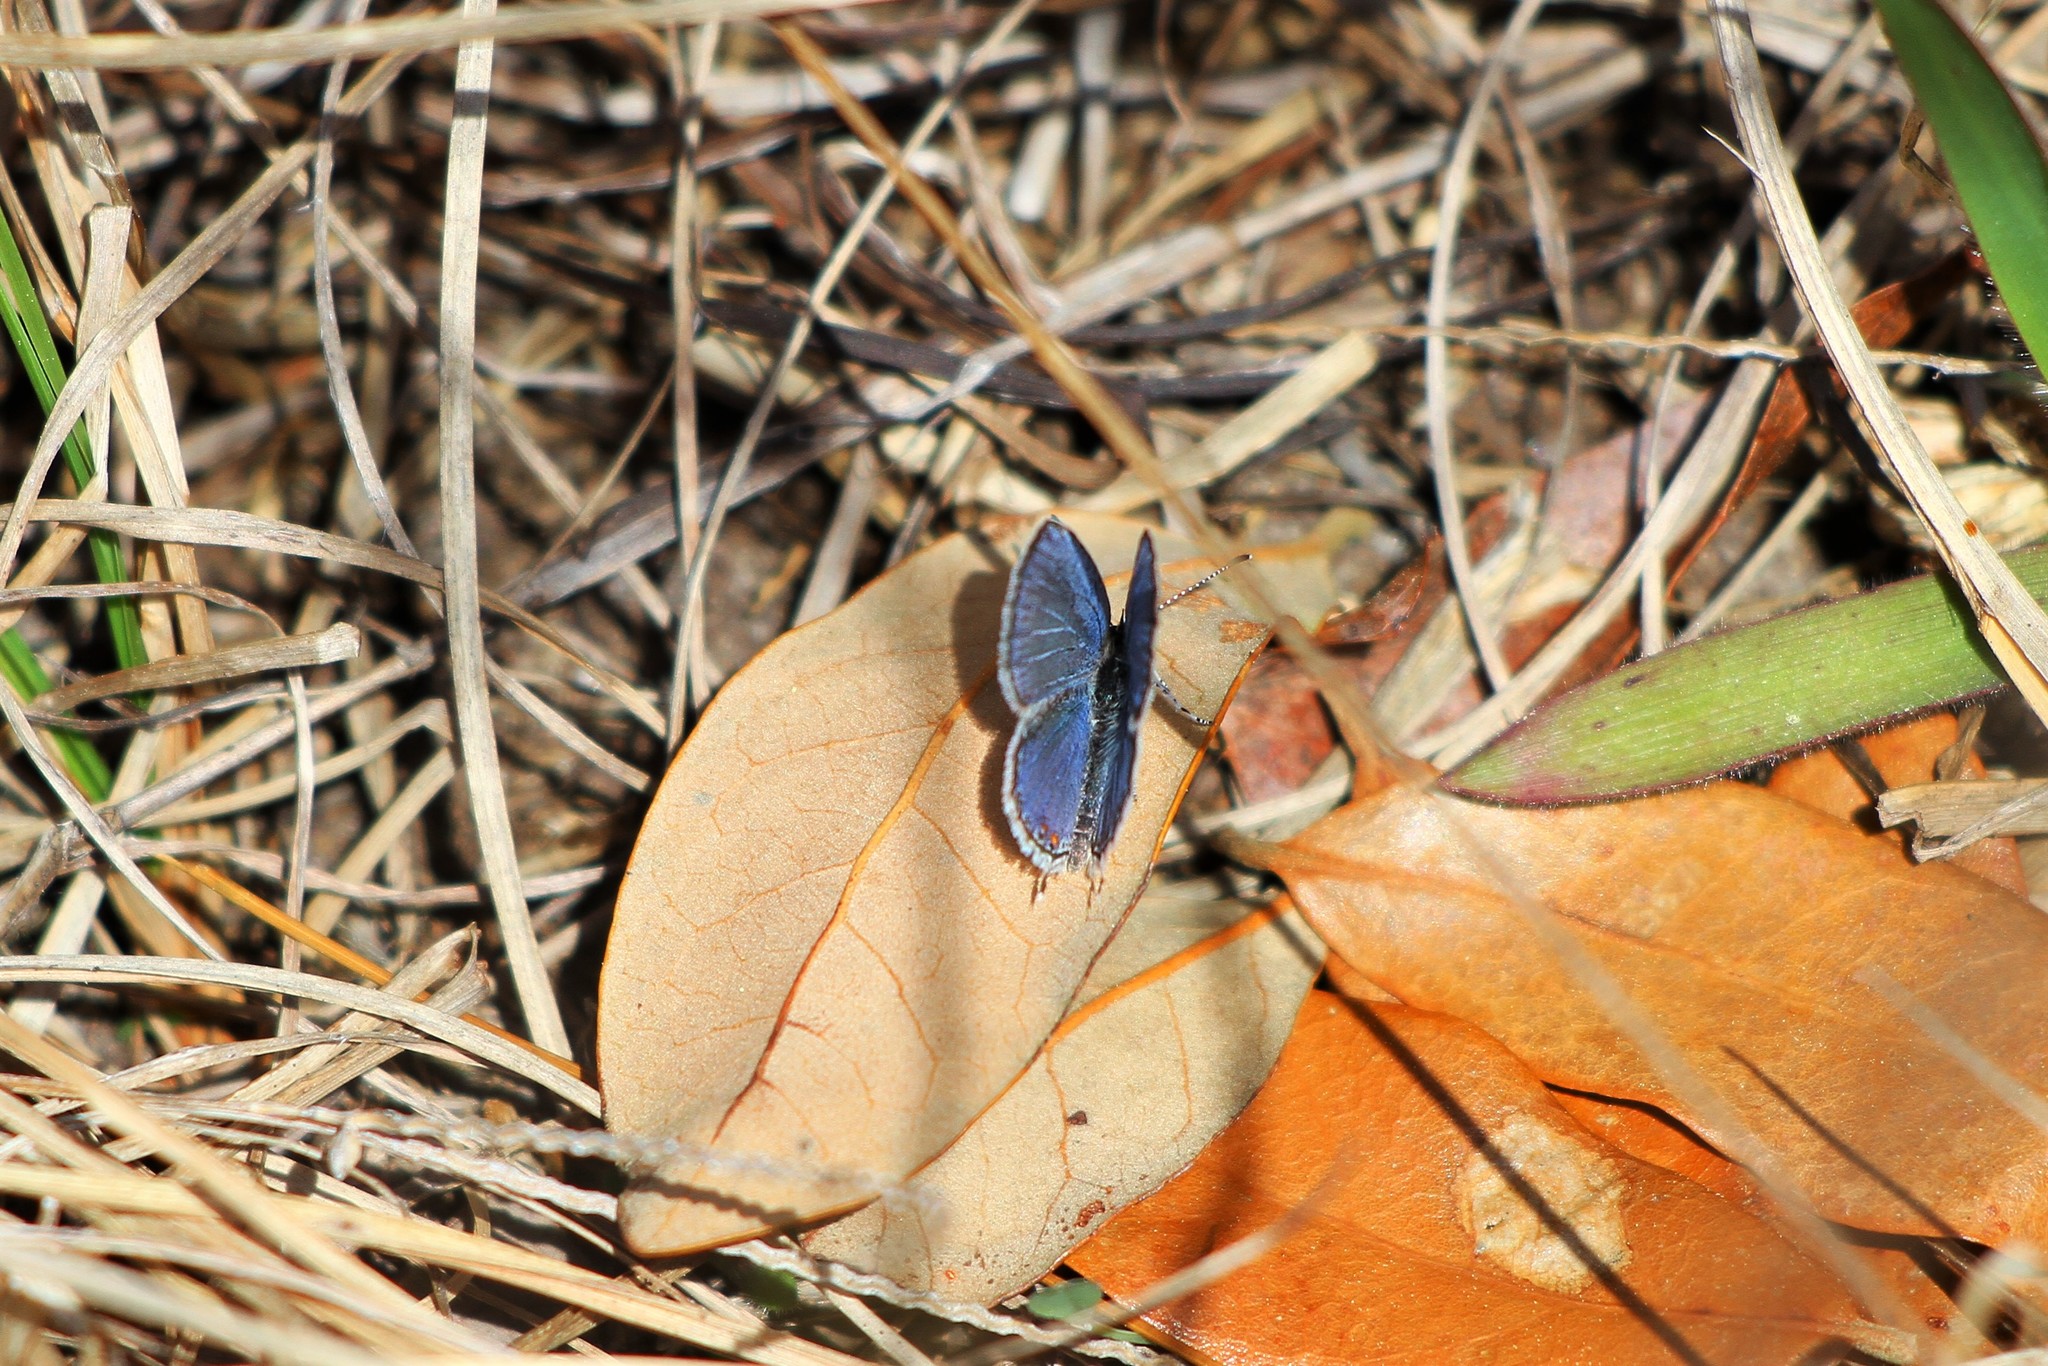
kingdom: Animalia
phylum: Arthropoda
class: Insecta
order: Lepidoptera
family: Lycaenidae
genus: Elkalyce
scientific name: Elkalyce comyntas
